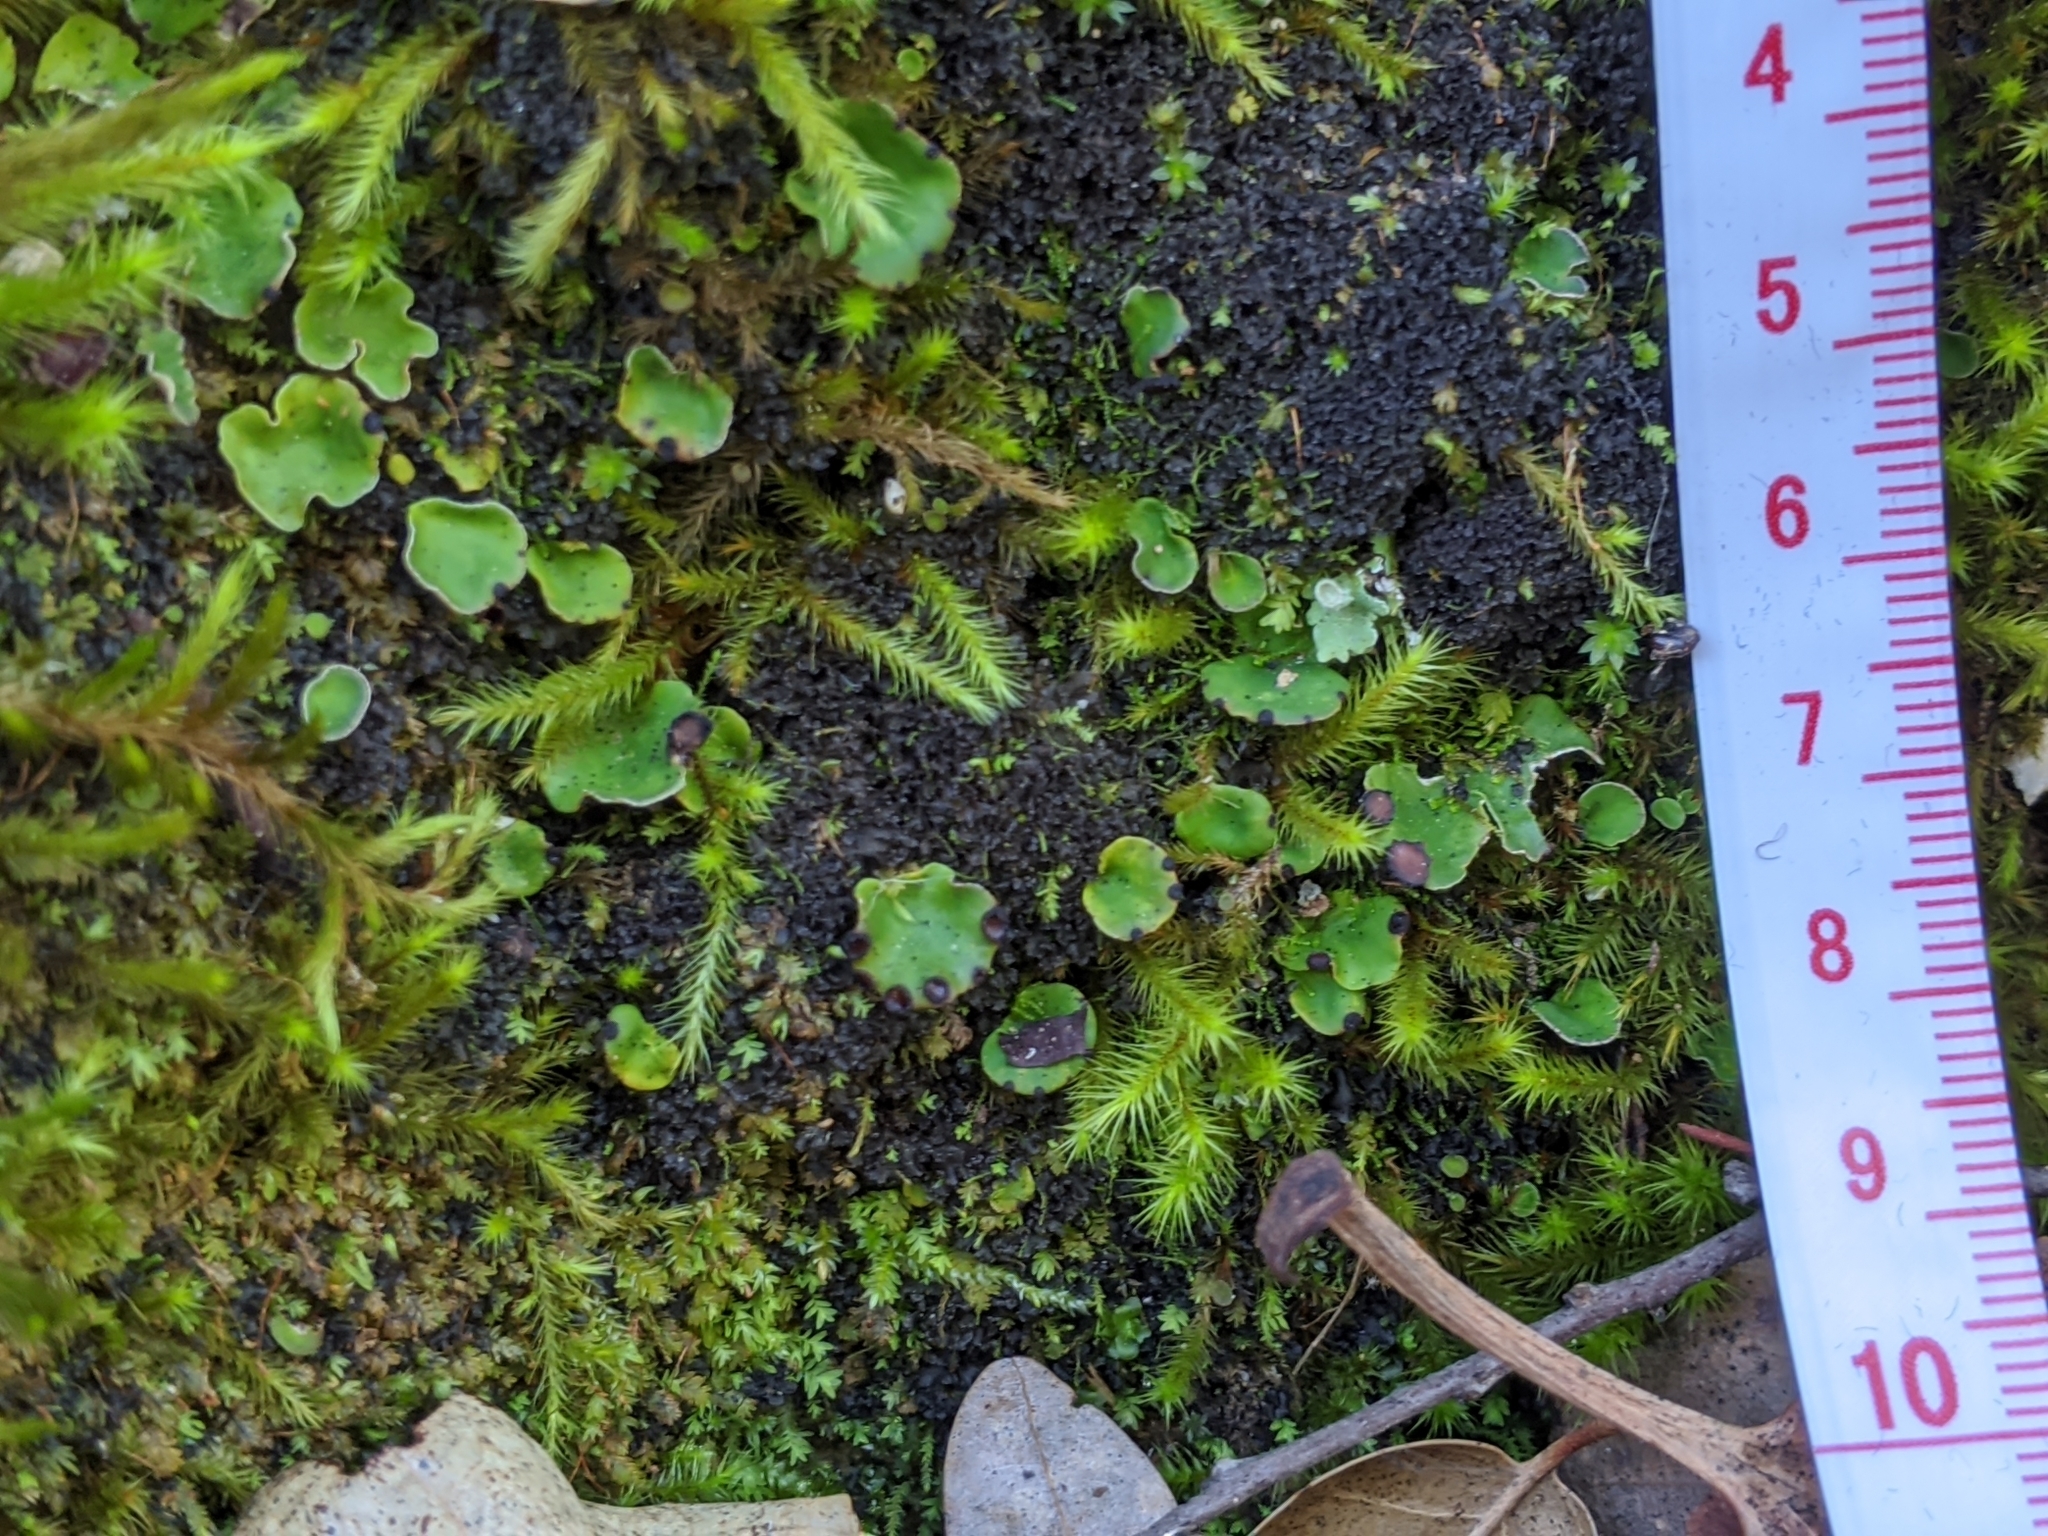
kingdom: Fungi
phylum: Ascomycota
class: Lecanoromycetes
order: Peltigerales
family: Peltigeraceae
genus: Peltigera
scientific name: Peltigera venosa
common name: Pixie gowns lichen
